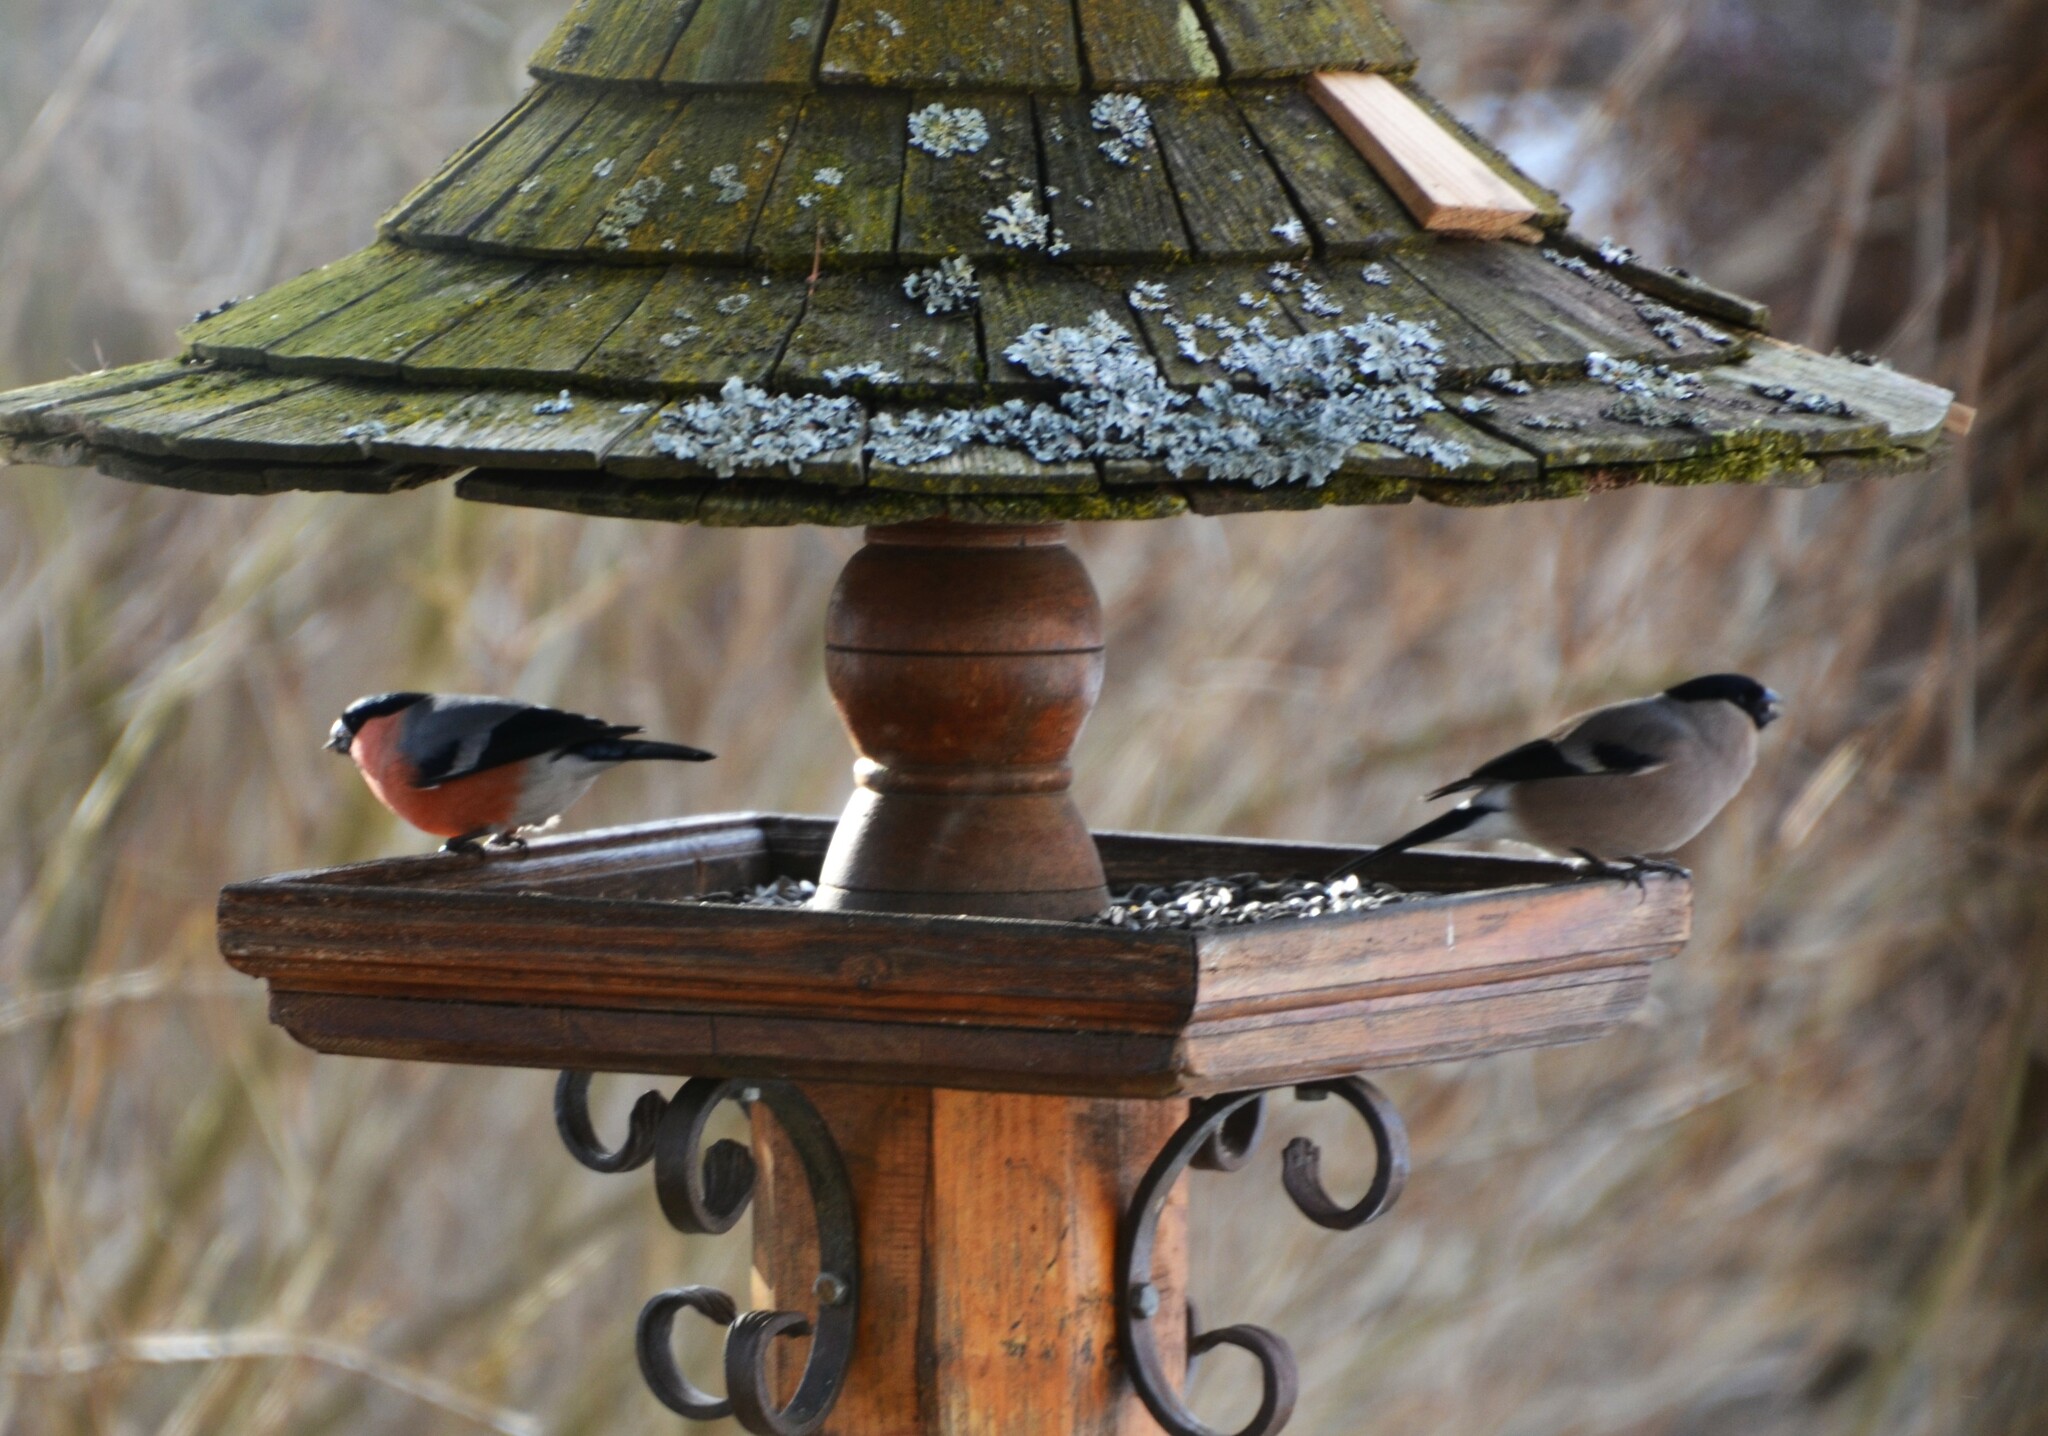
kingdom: Animalia
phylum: Chordata
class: Aves
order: Passeriformes
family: Fringillidae
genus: Pyrrhula
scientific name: Pyrrhula pyrrhula
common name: Eurasian bullfinch
